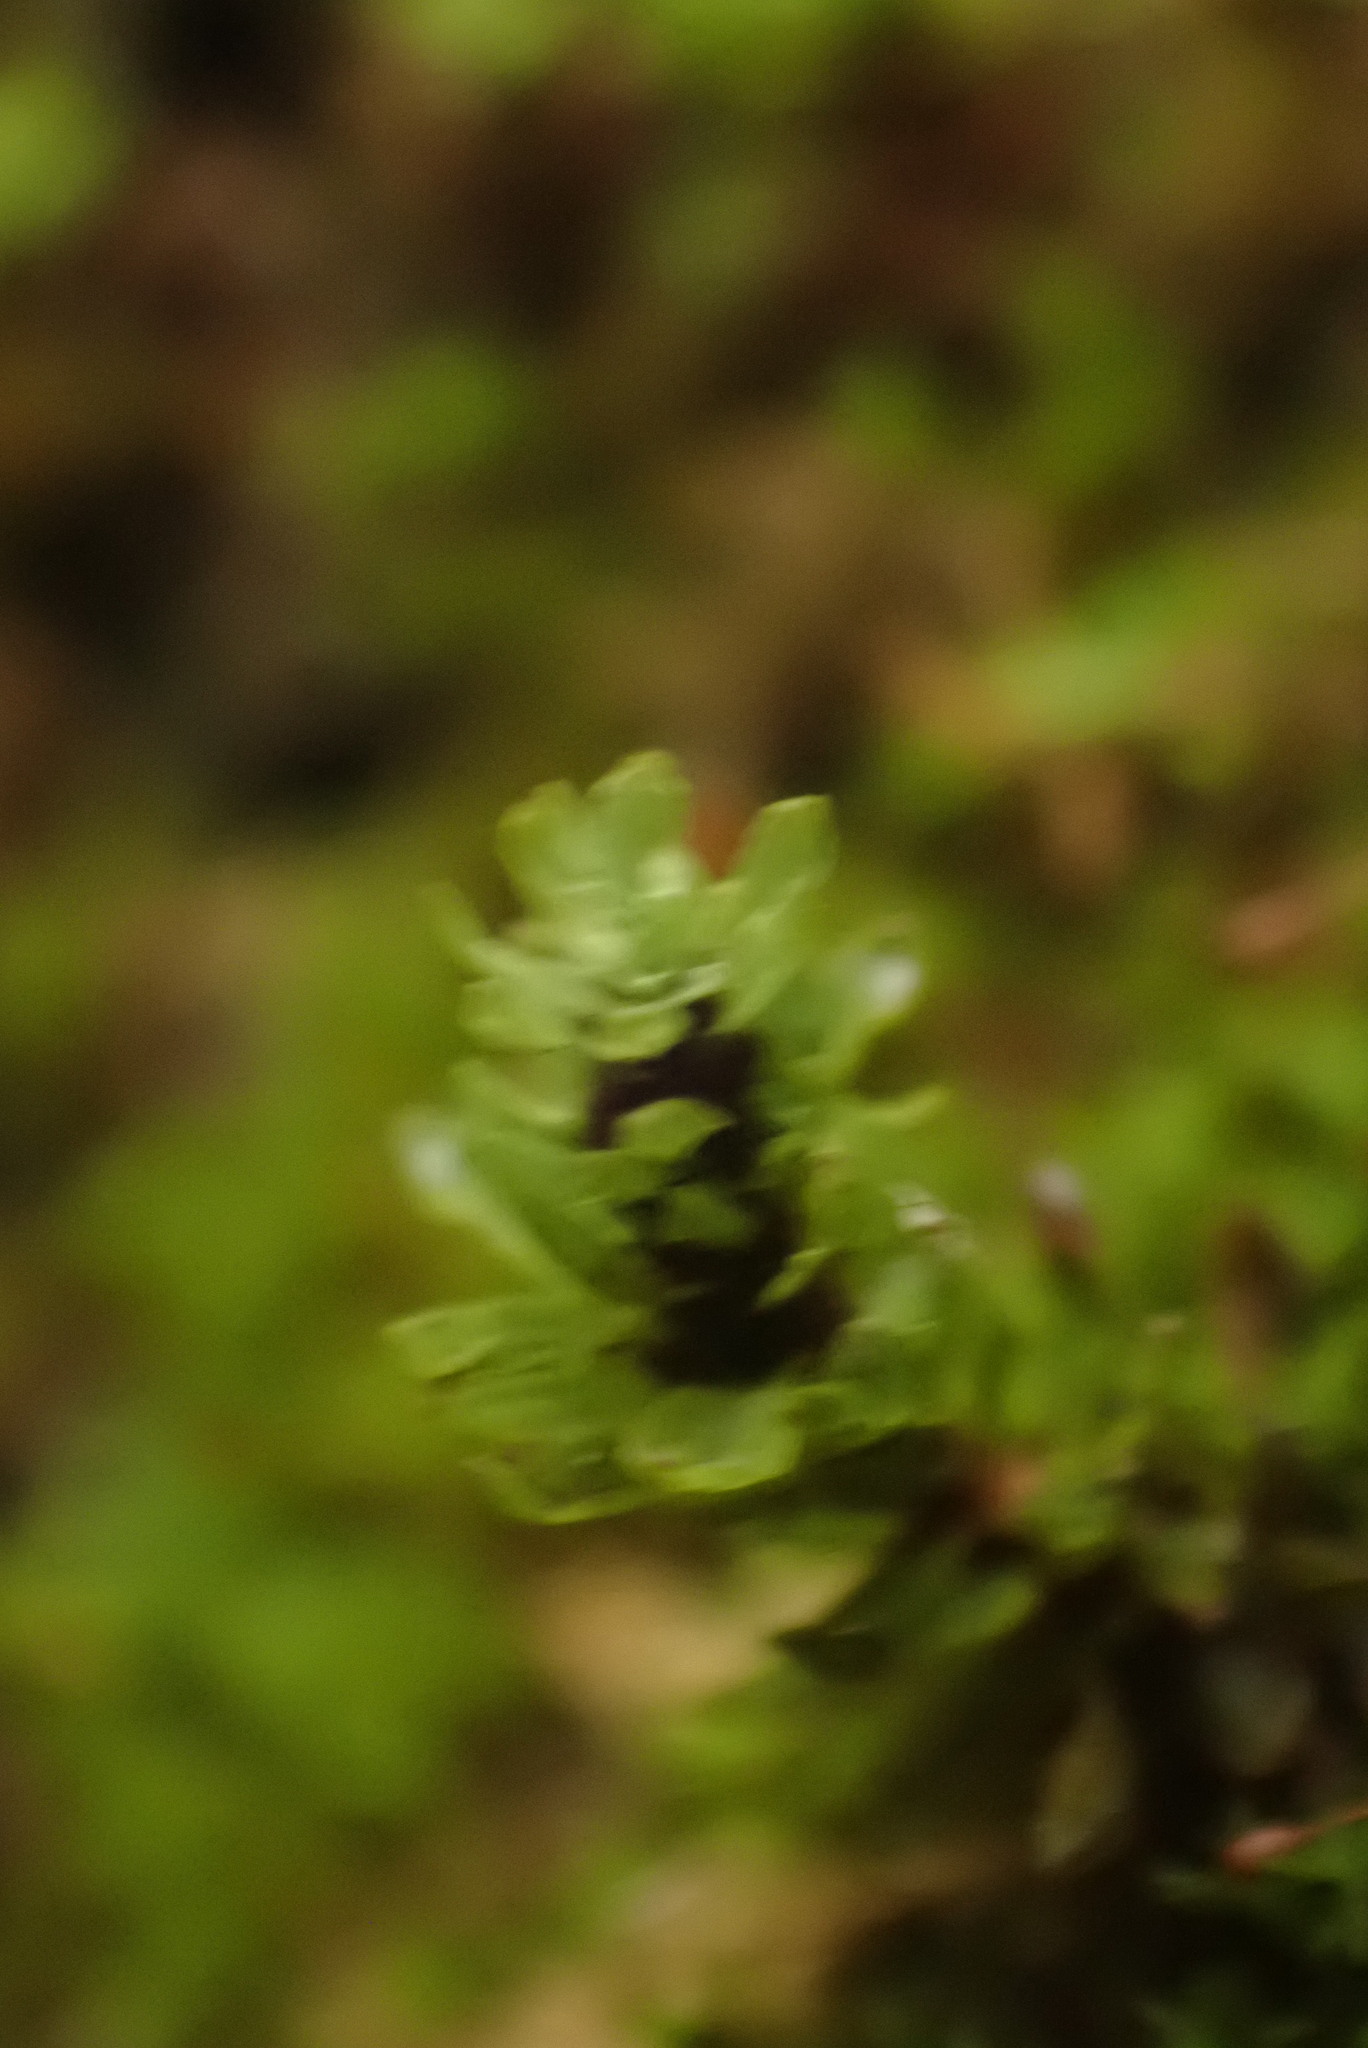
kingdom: Plantae
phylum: Bryophyta
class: Bryopsida
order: Encalyptales
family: Encalyptaceae
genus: Encalypta
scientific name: Encalypta procera
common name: Spiral extinguisher moss
